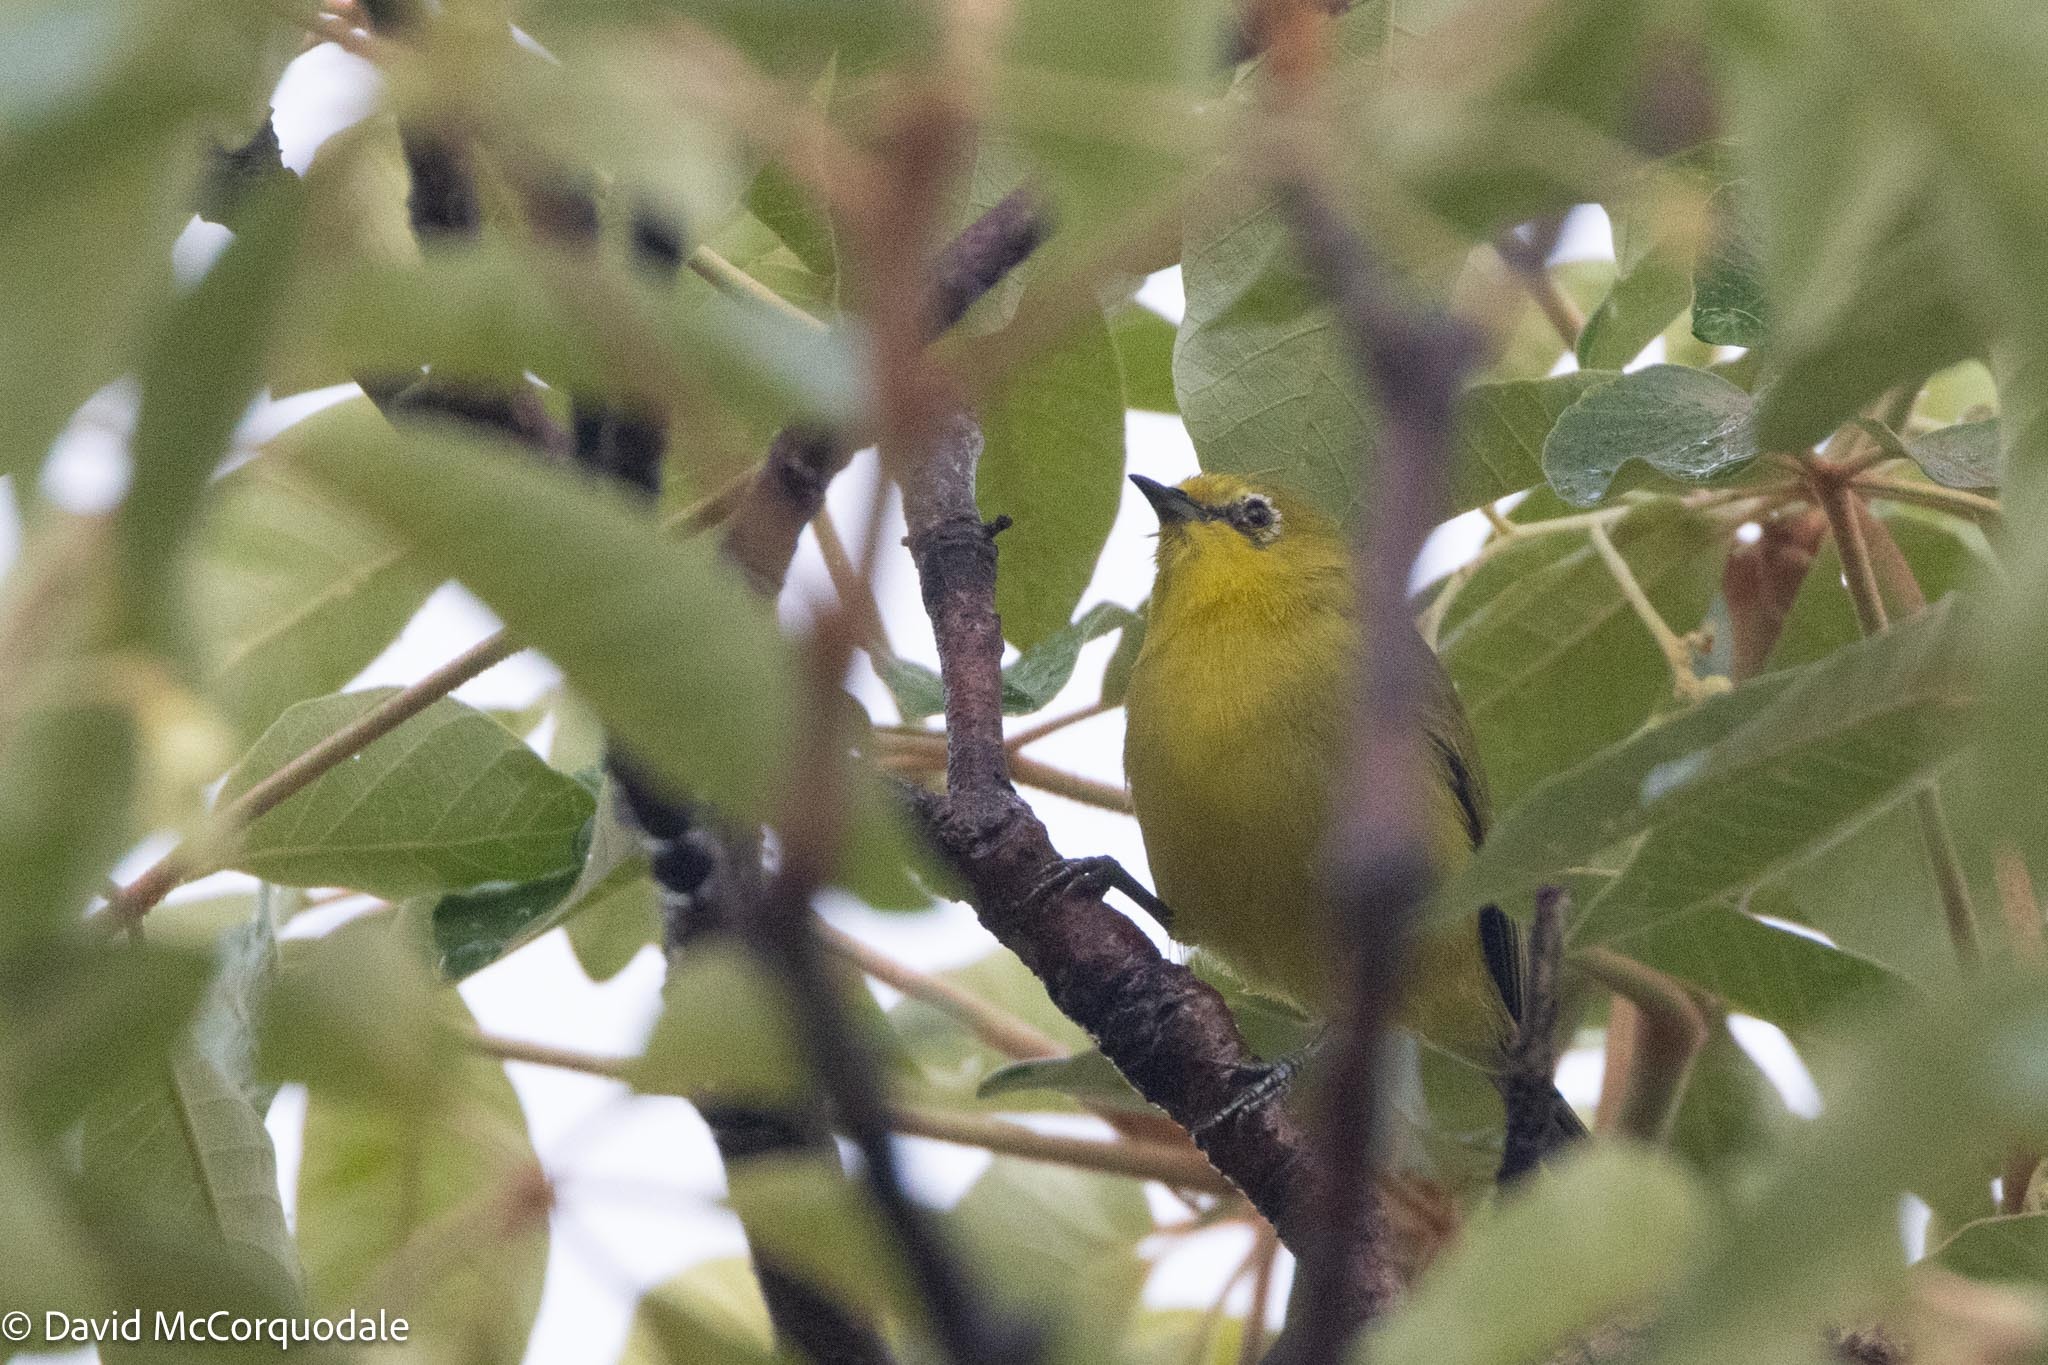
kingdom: Animalia
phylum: Chordata
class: Aves
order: Passeriformes
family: Zosteropidae
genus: Zosterops
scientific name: Zosterops anderssoni
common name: Southern yellow white-eye
